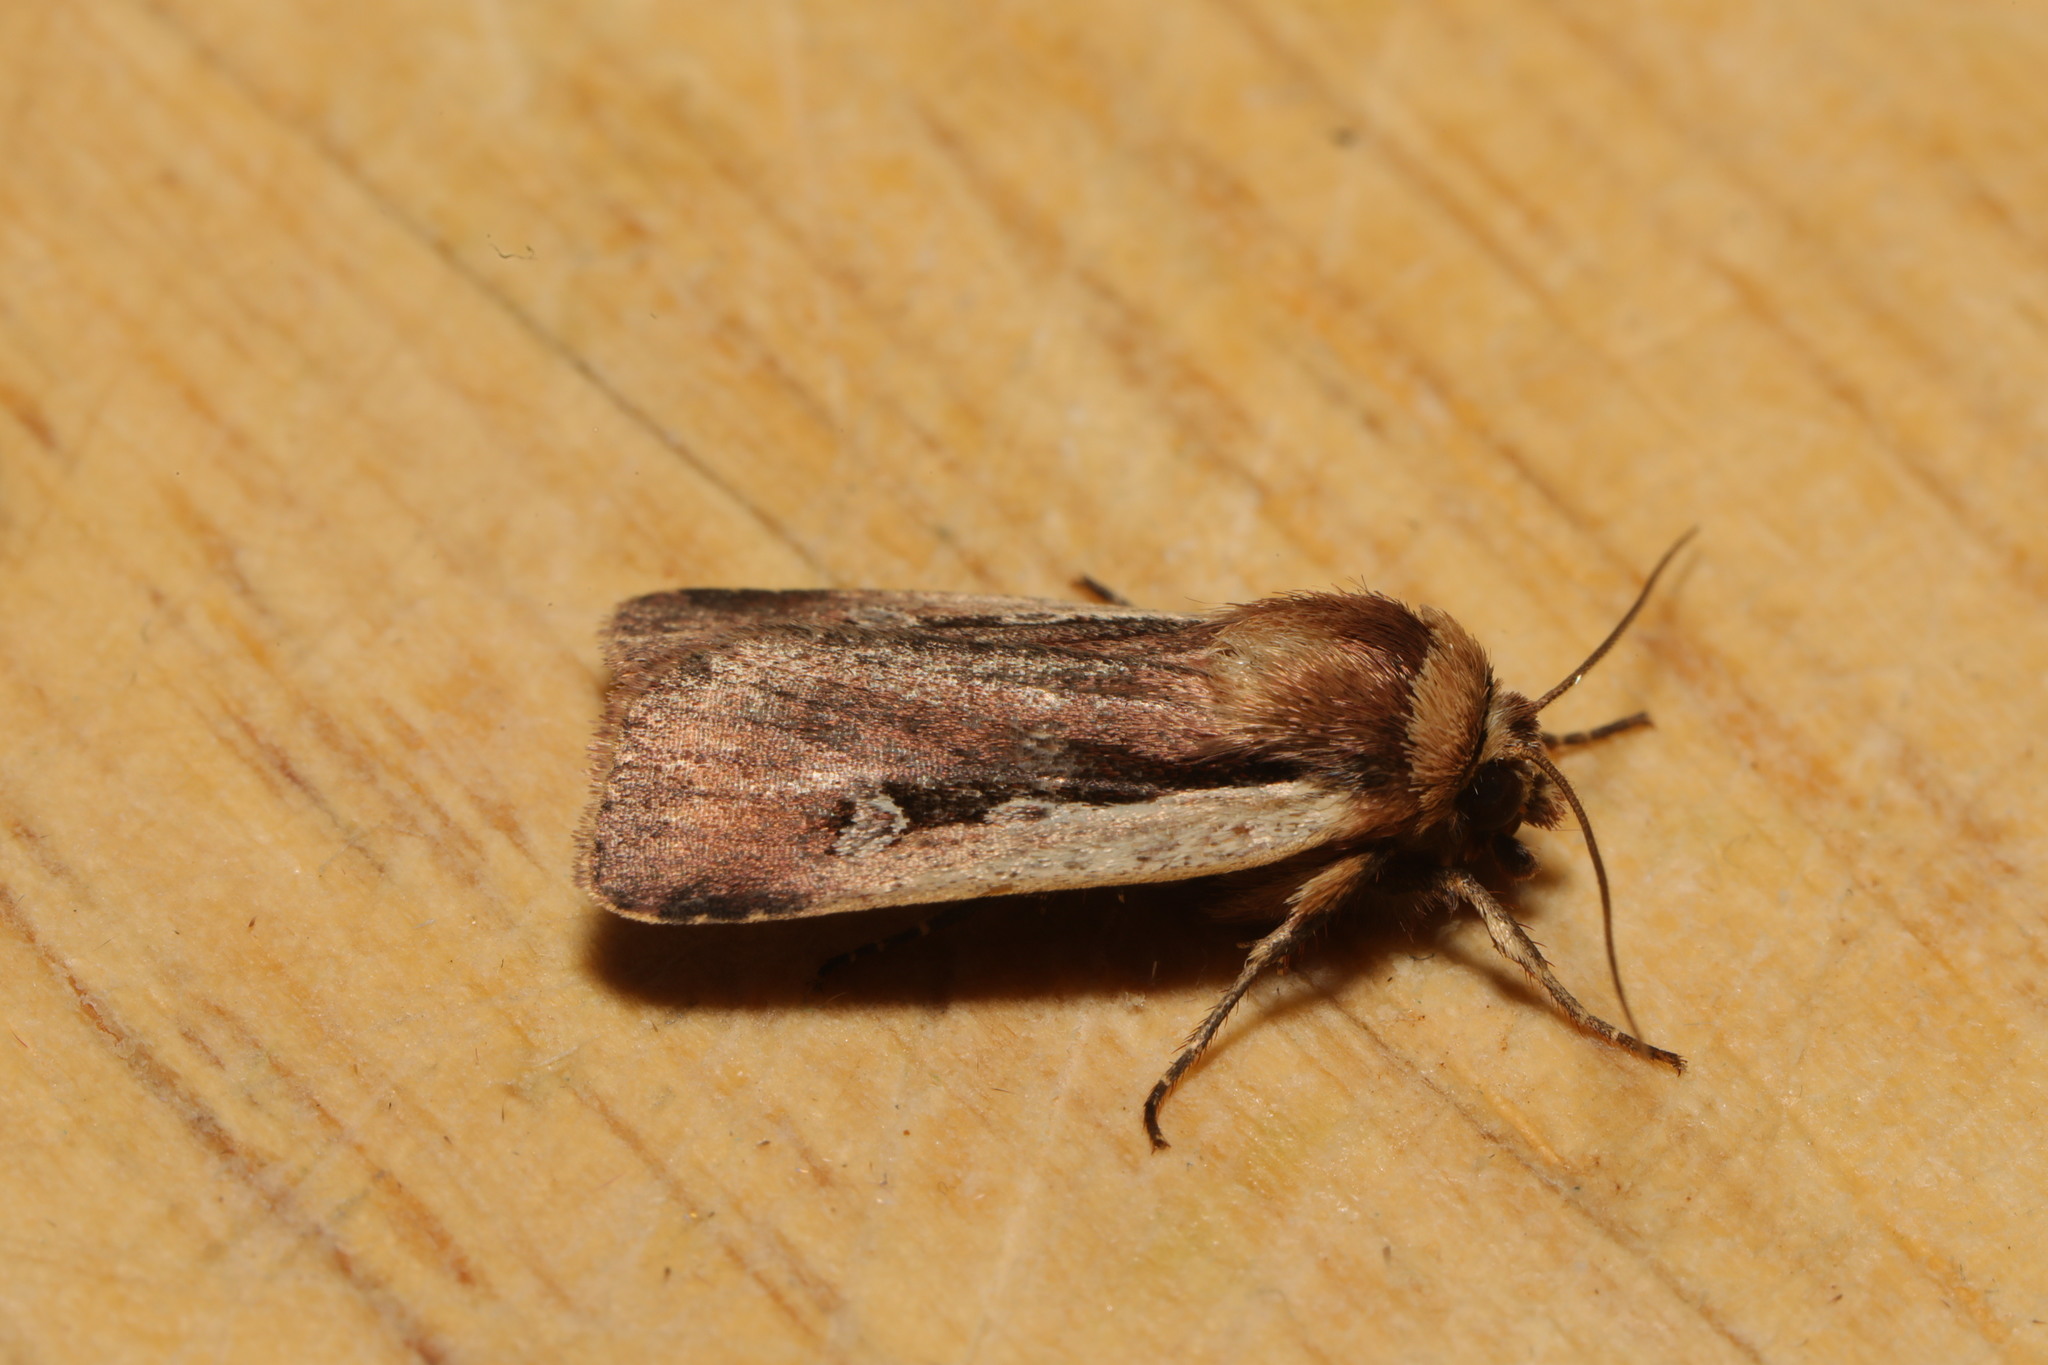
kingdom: Animalia
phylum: Arthropoda
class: Insecta
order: Lepidoptera
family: Noctuidae
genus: Ochropleura
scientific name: Ochropleura plecta
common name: Flame shoulder
